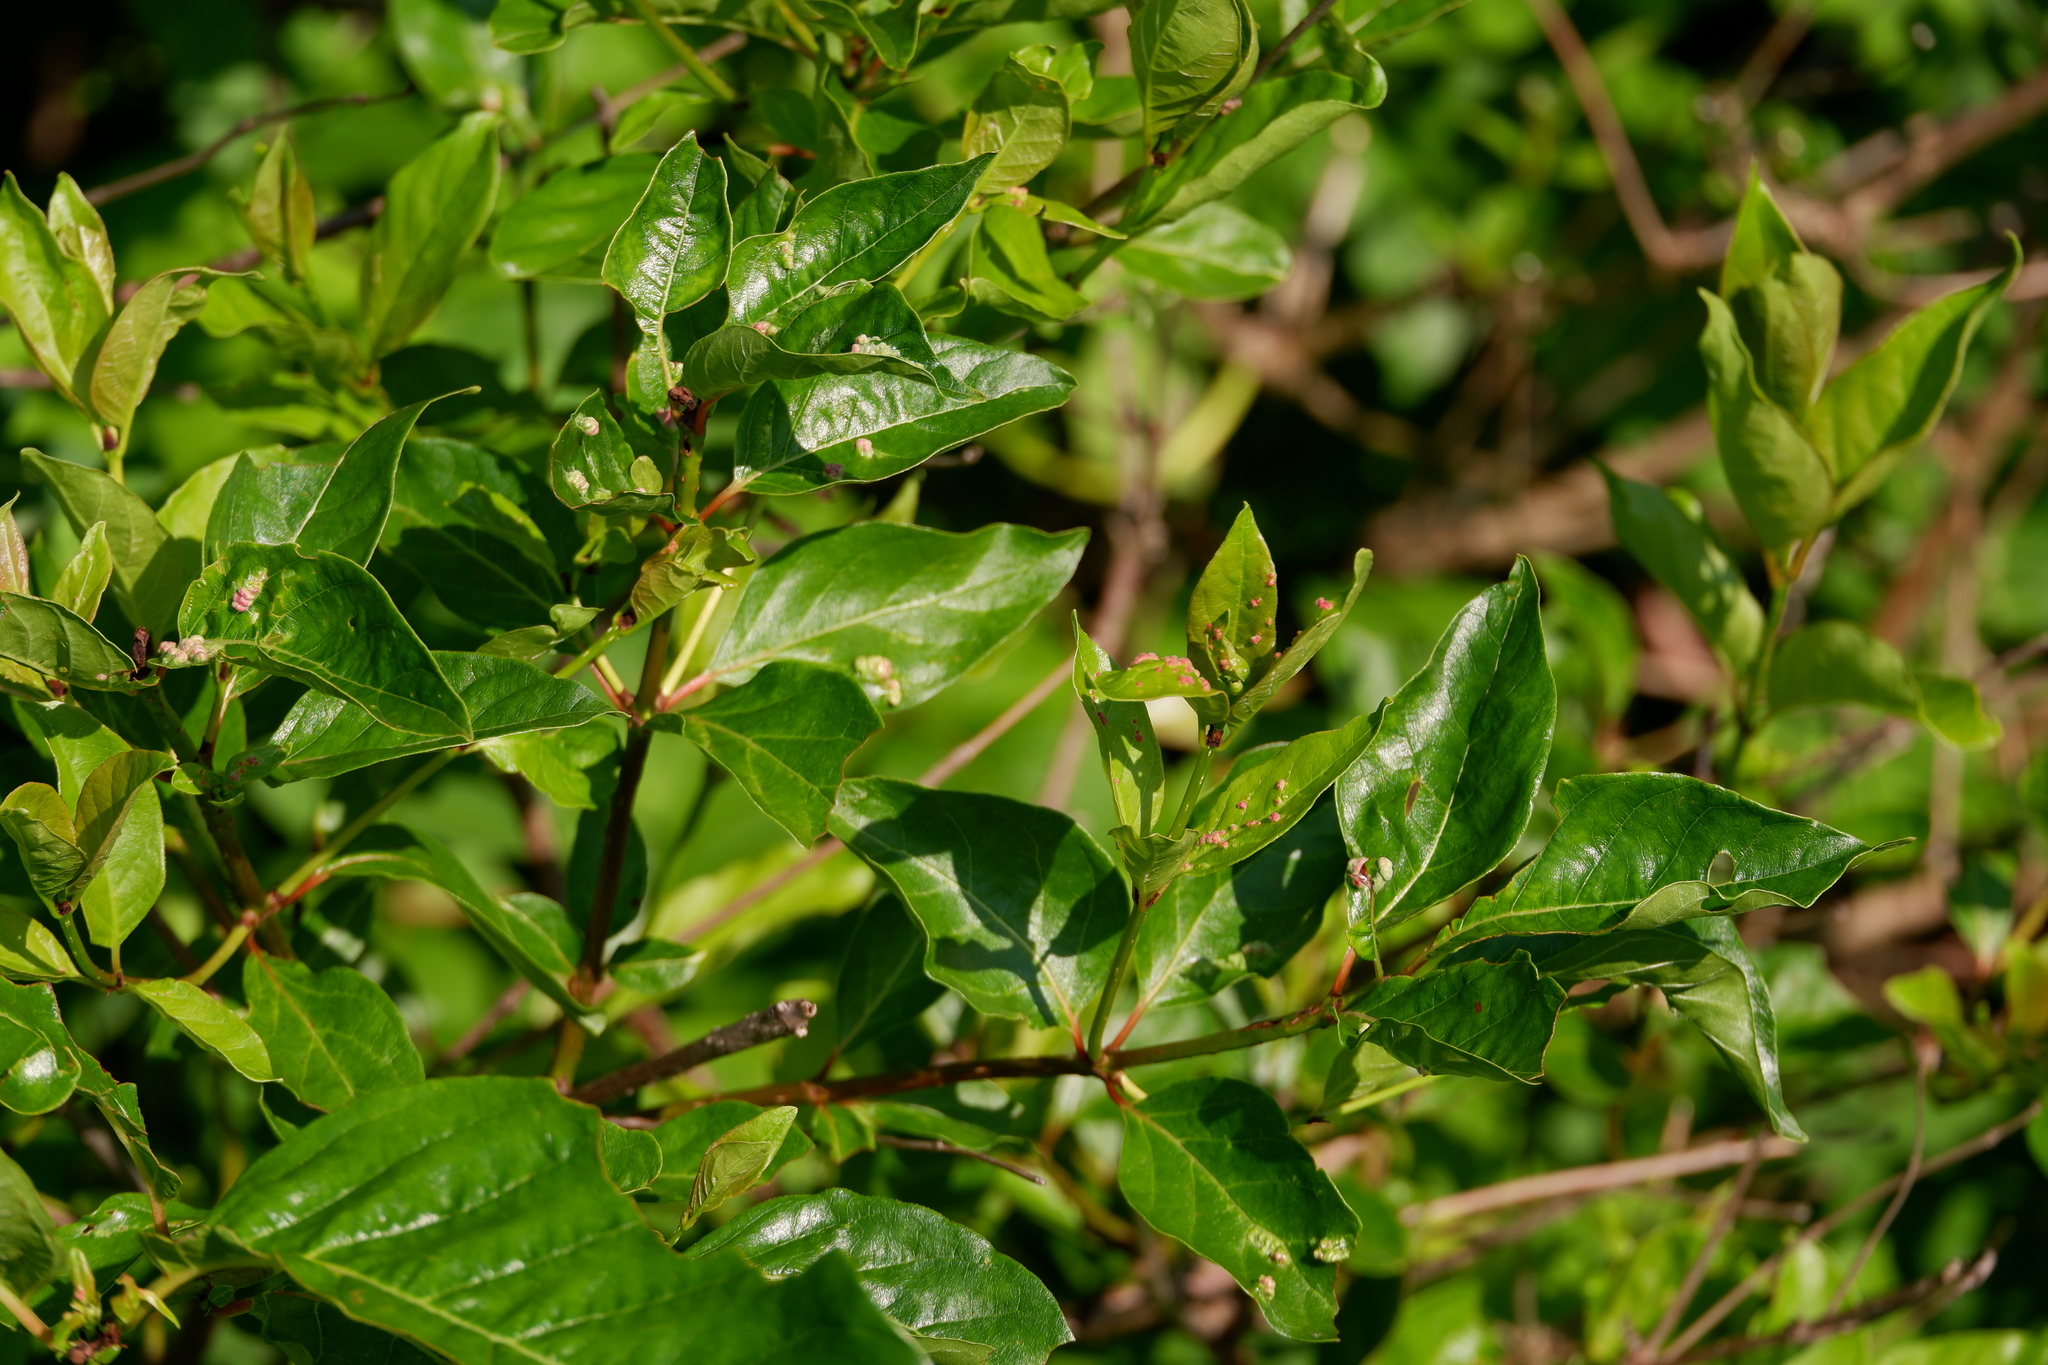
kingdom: Animalia
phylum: Arthropoda
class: Arachnida
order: Trombidiformes
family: Eriophyidae
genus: Aceria
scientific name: Aceria
